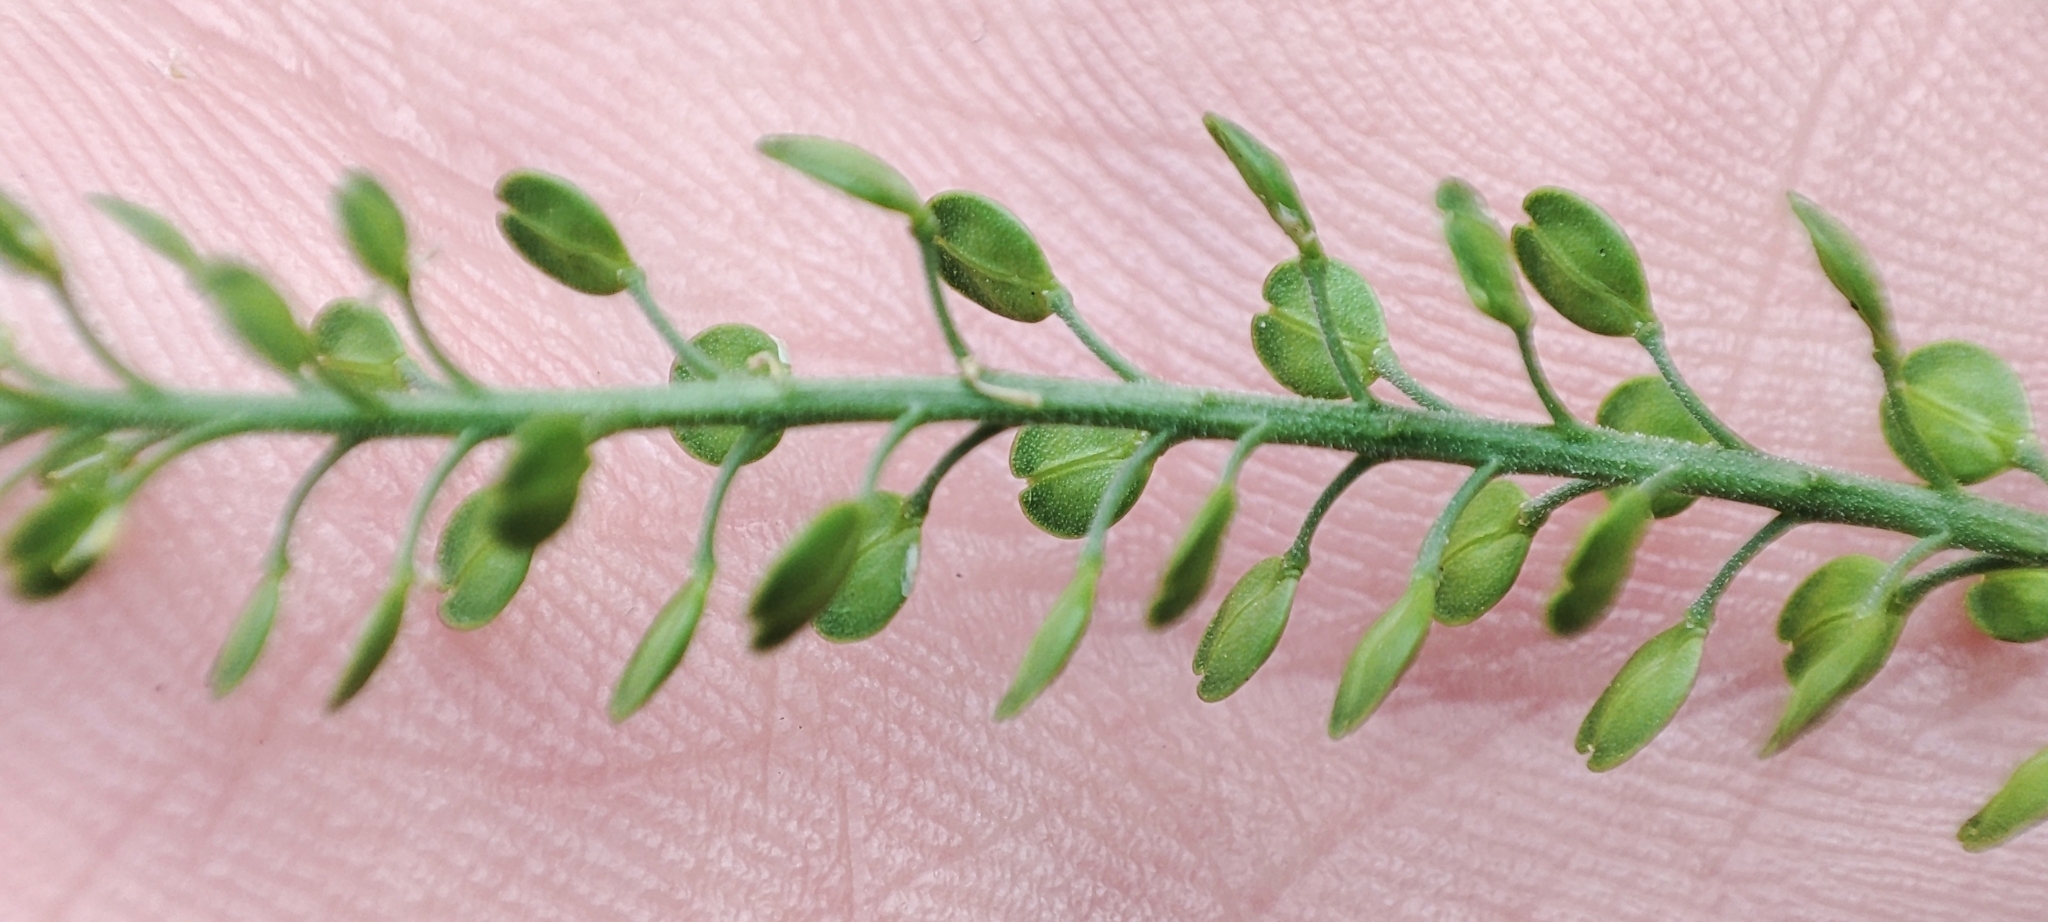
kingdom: Plantae
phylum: Tracheophyta
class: Magnoliopsida
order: Brassicales
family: Brassicaceae
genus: Lepidium
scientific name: Lepidium densiflorum
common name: Miner's pepperwort
